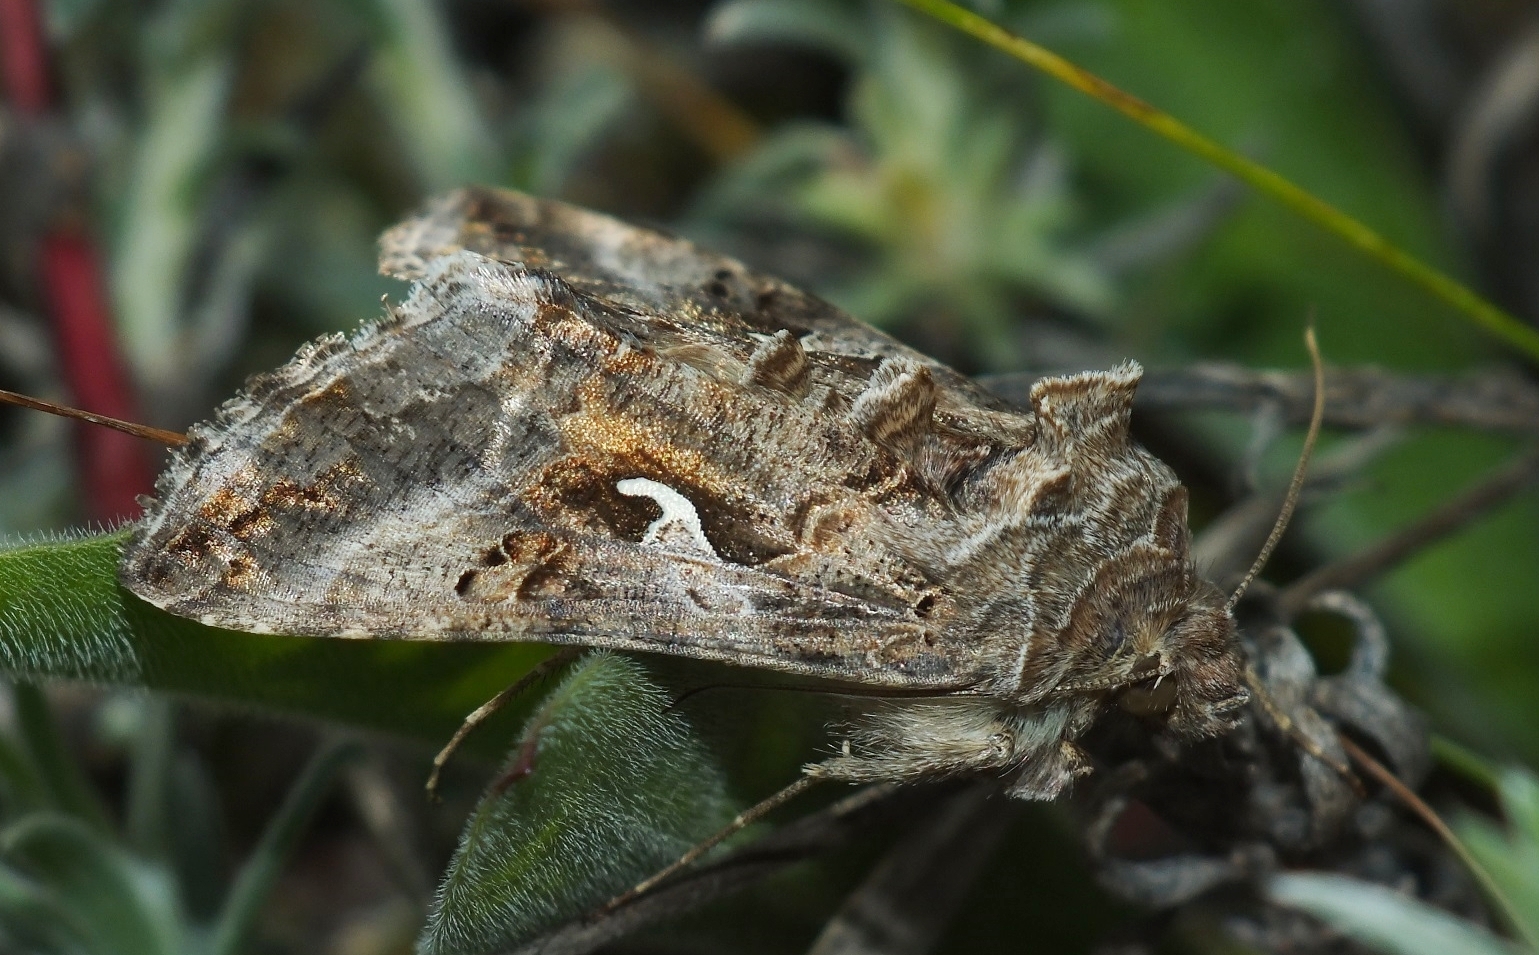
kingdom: Animalia
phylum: Arthropoda
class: Insecta
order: Lepidoptera
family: Noctuidae
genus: Autographa
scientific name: Autographa gamma
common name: Silver y
